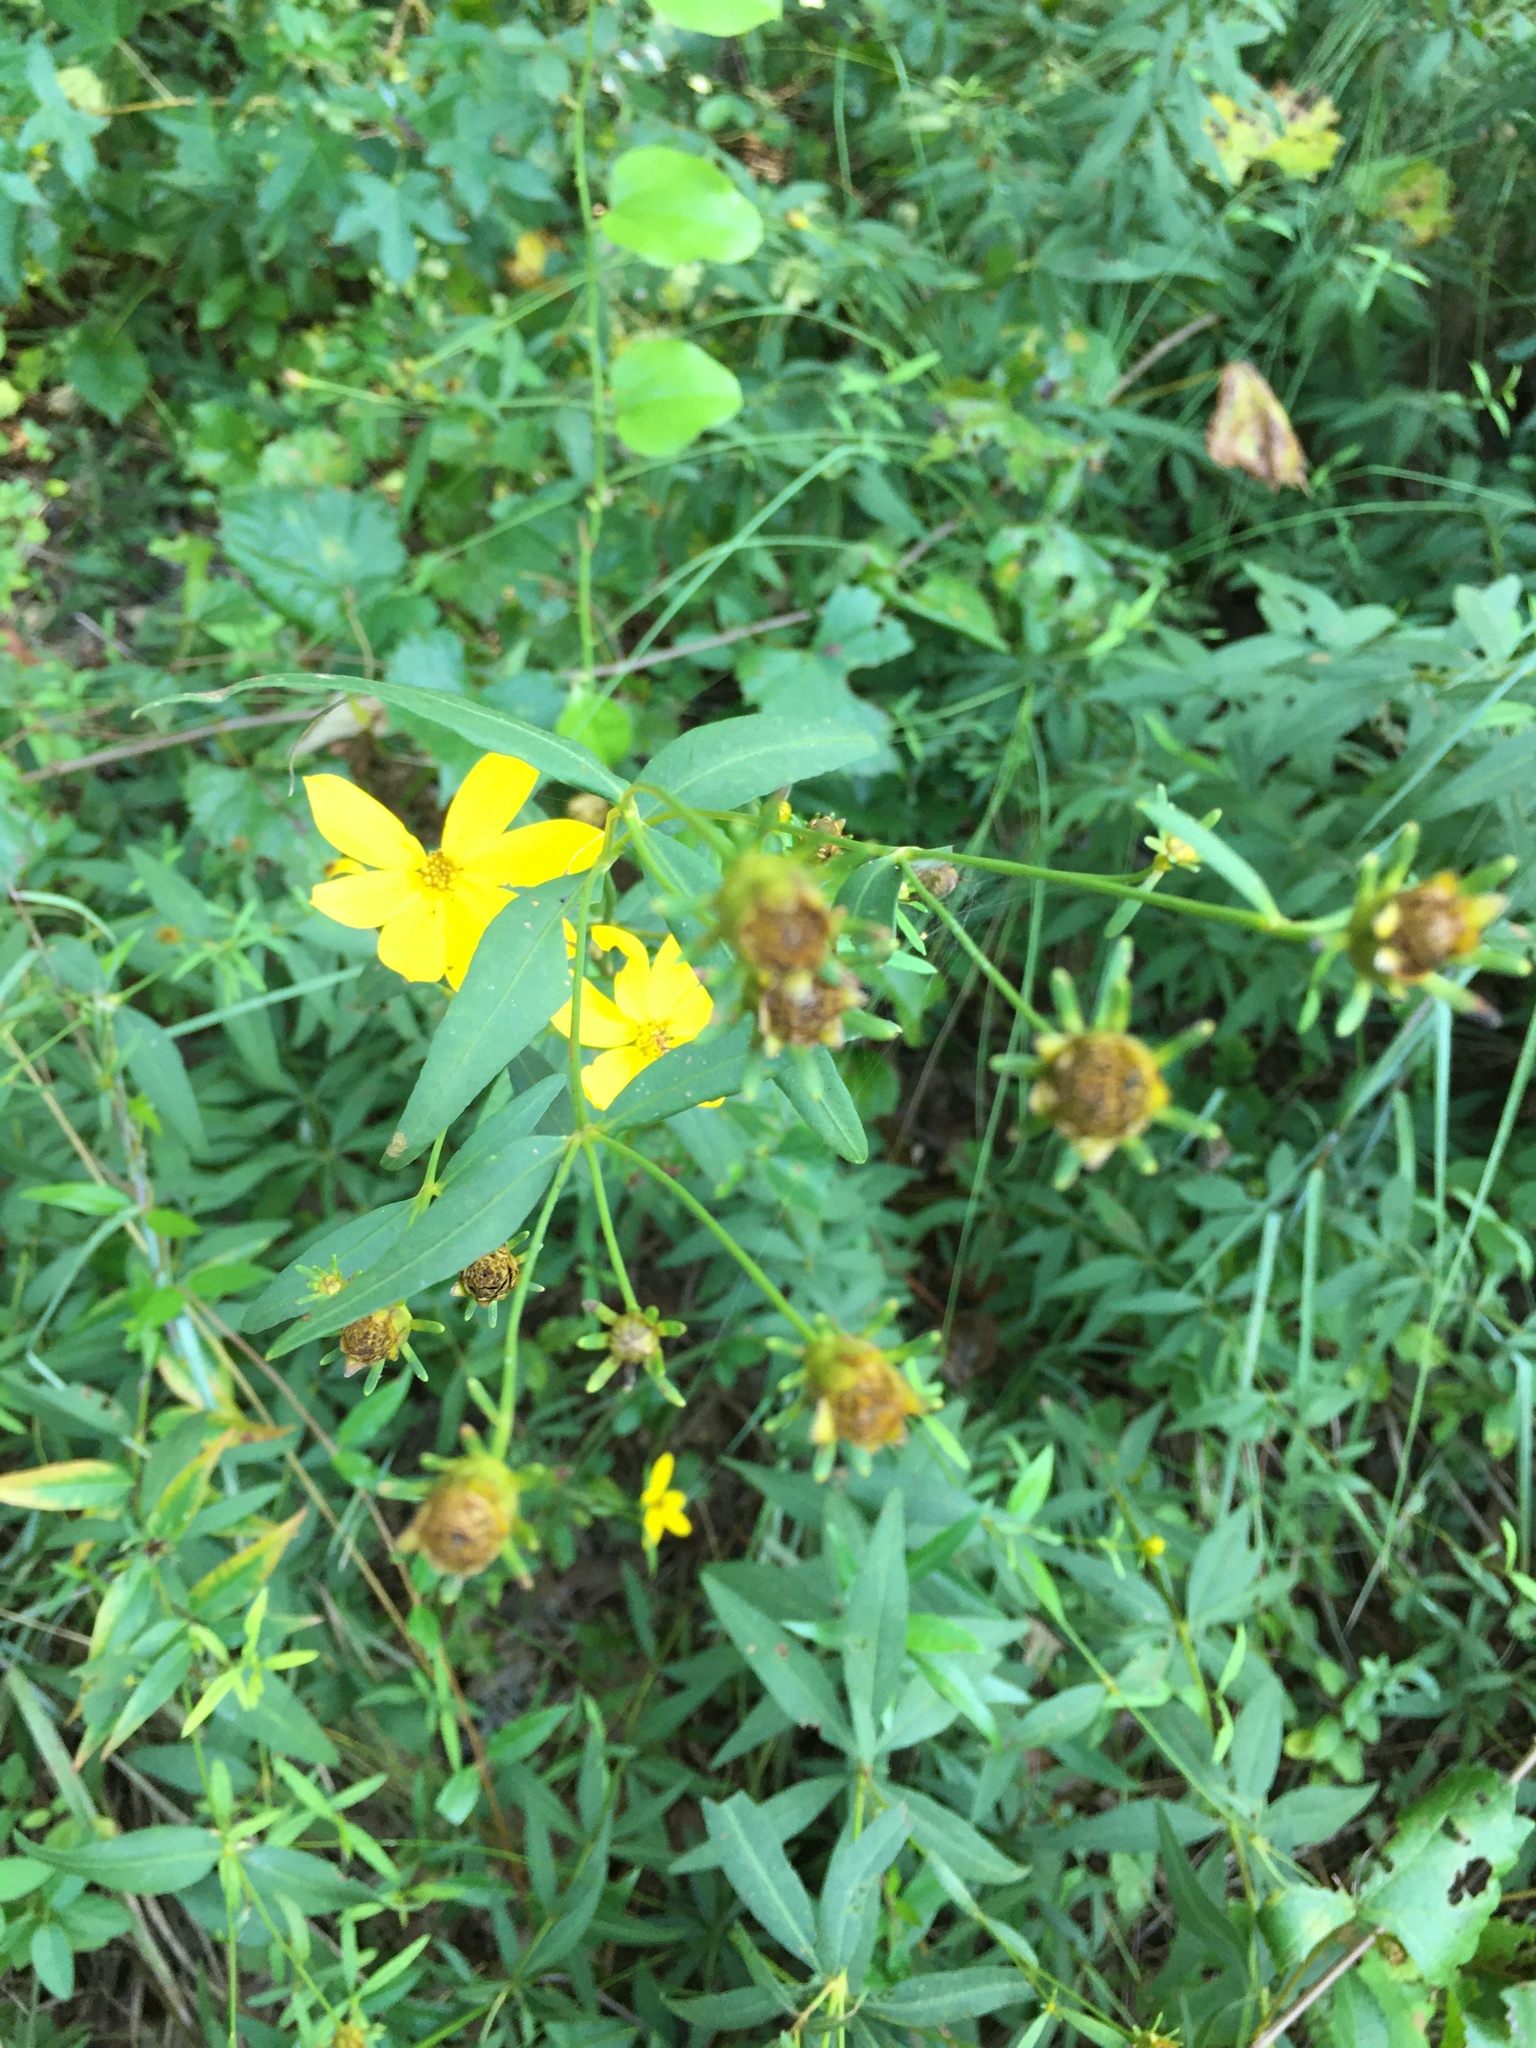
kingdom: Plantae
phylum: Tracheophyta
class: Magnoliopsida
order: Asterales
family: Asteraceae
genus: Coreopsis
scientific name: Coreopsis major
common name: Forest tickseed
